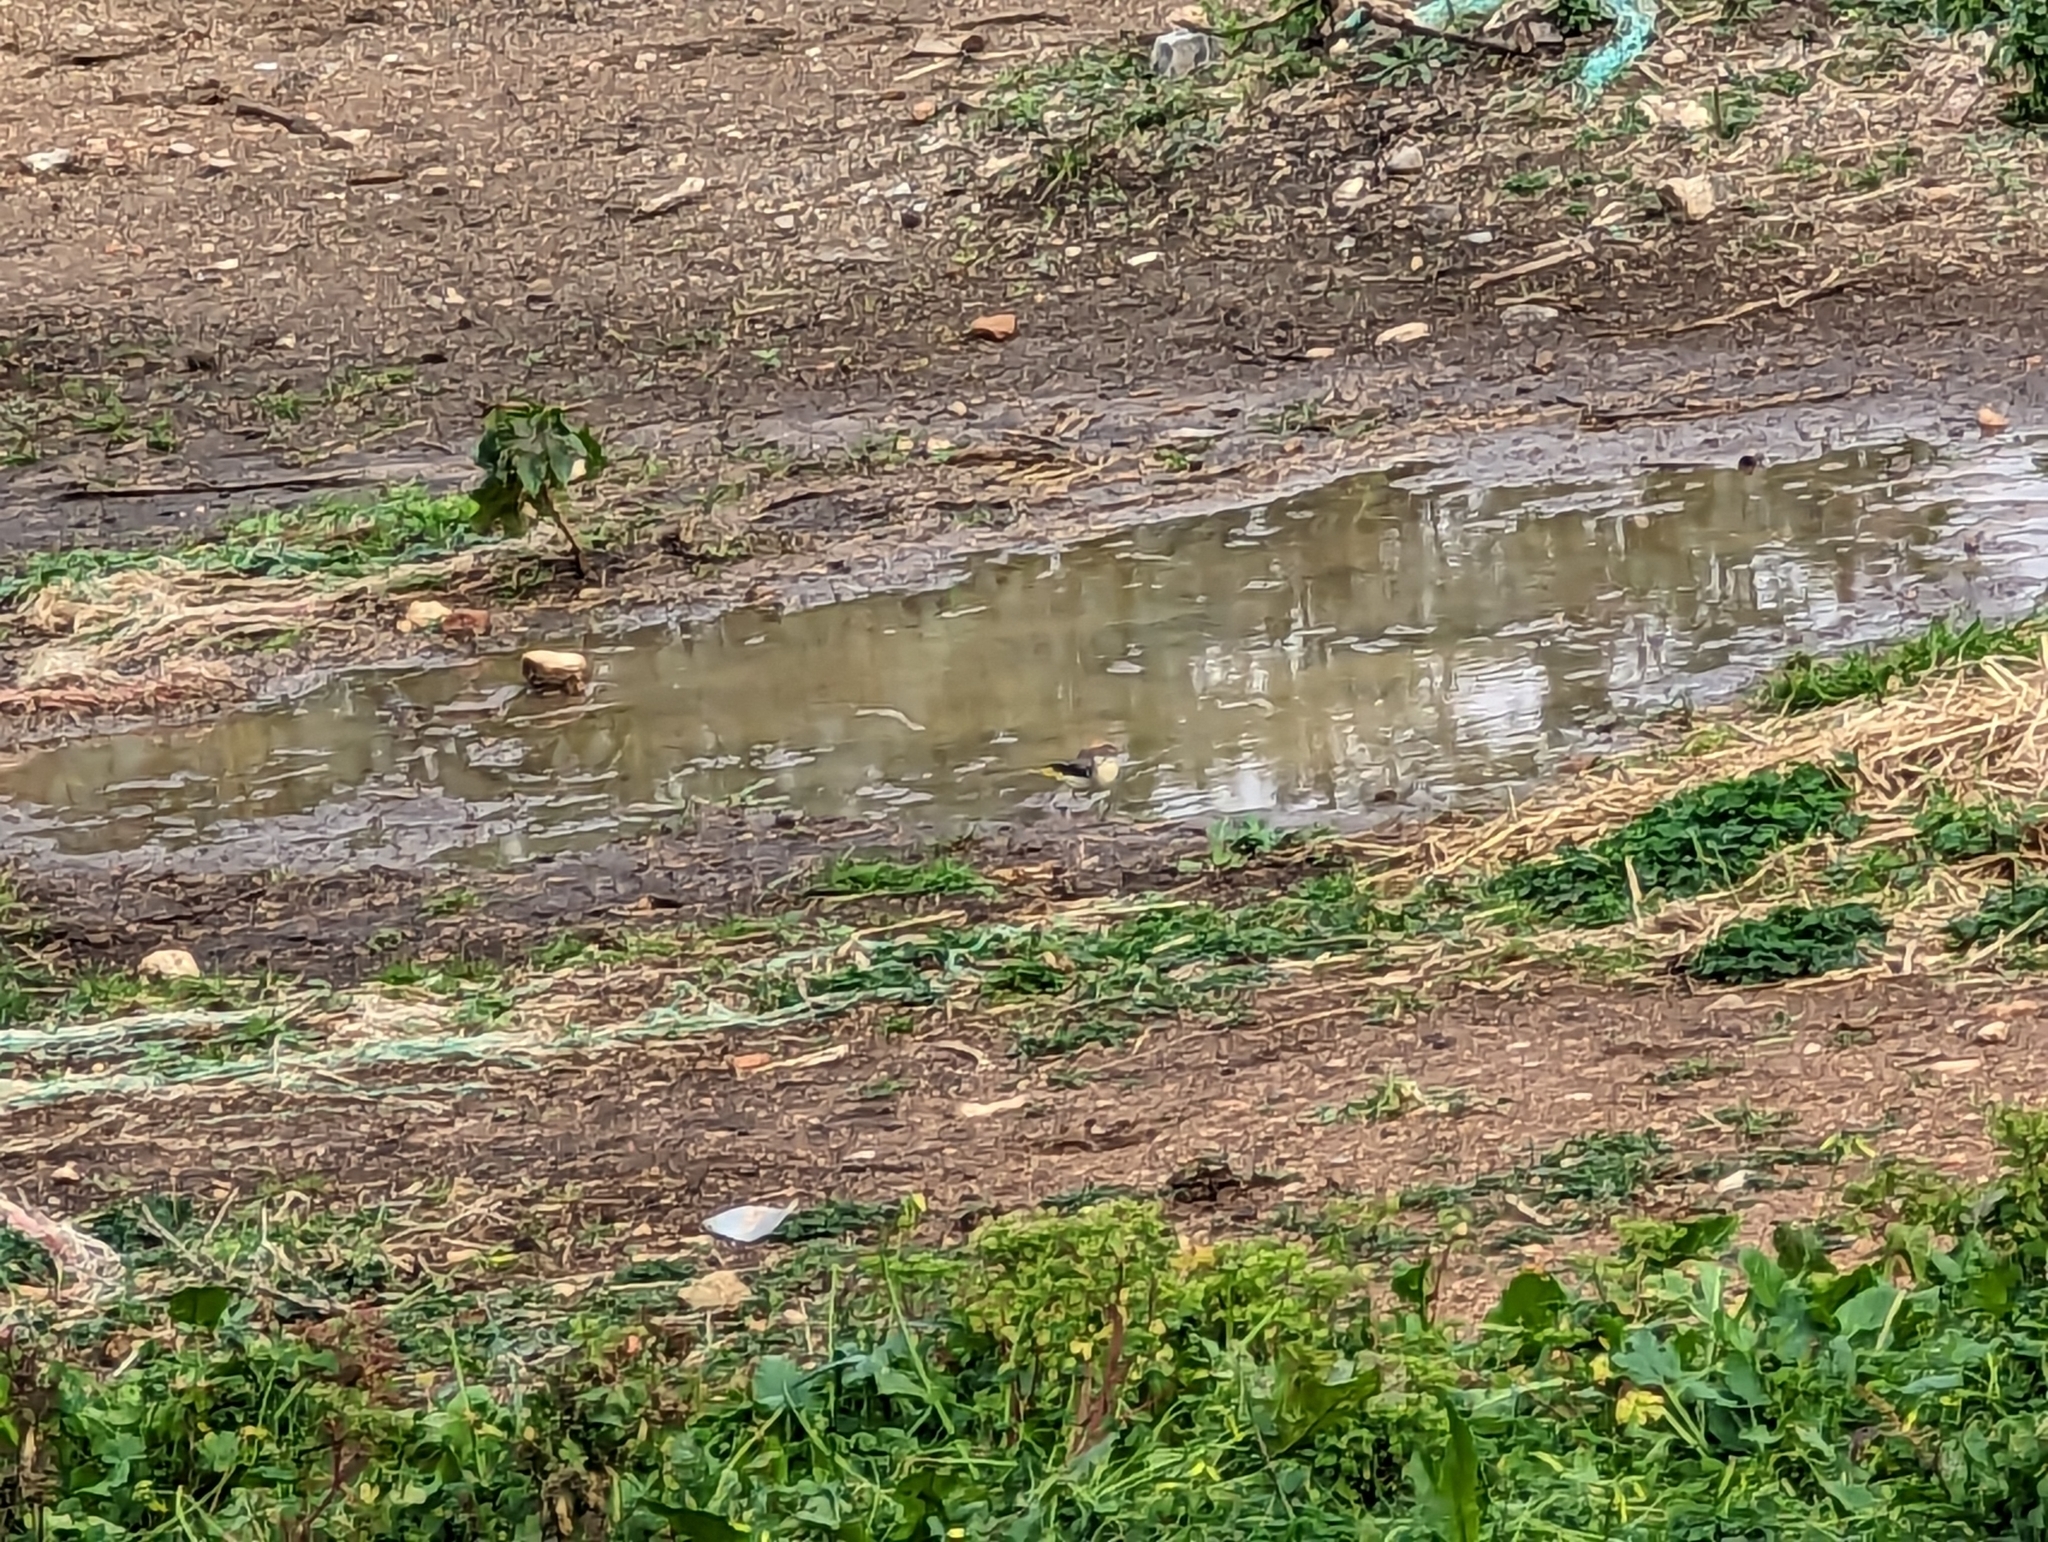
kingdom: Animalia
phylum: Chordata
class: Aves
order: Passeriformes
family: Motacillidae
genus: Motacilla
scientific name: Motacilla cinerea
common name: Grey wagtail
